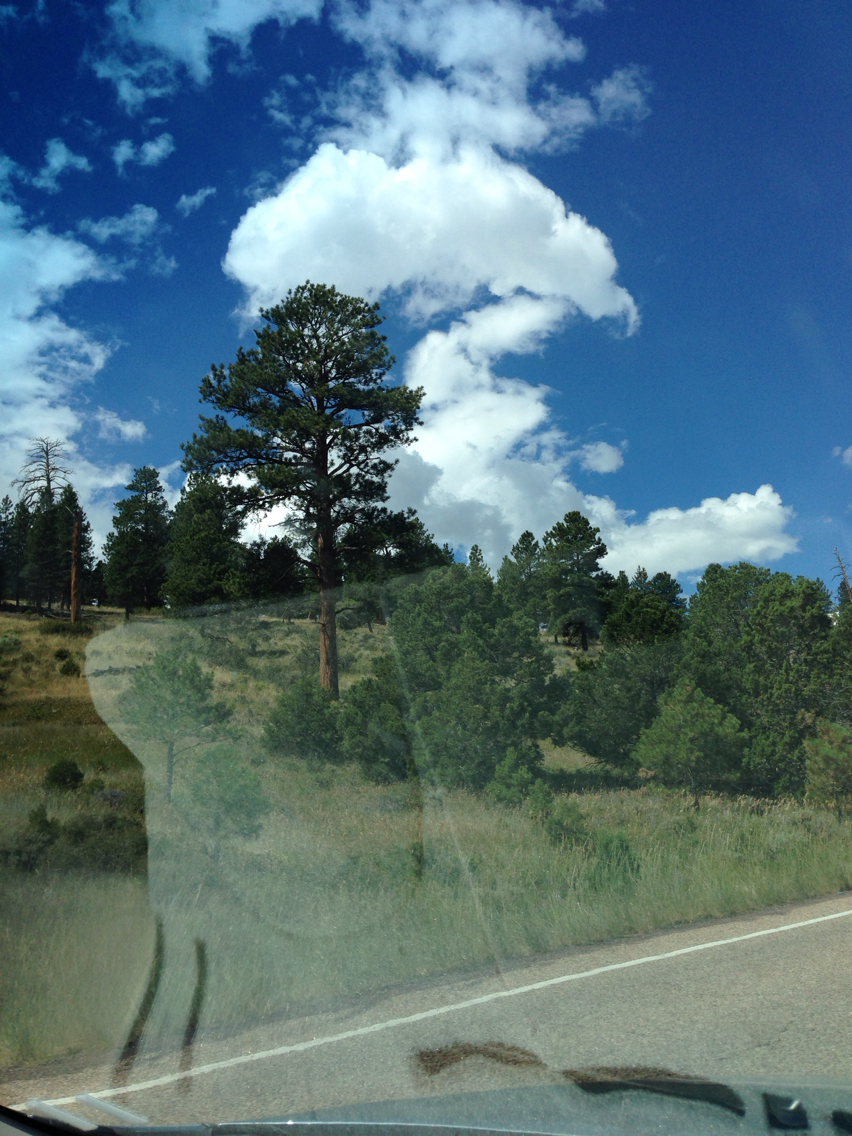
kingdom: Plantae
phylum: Tracheophyta
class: Pinopsida
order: Pinales
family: Pinaceae
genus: Pinus
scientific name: Pinus ponderosa
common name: Western yellow-pine
